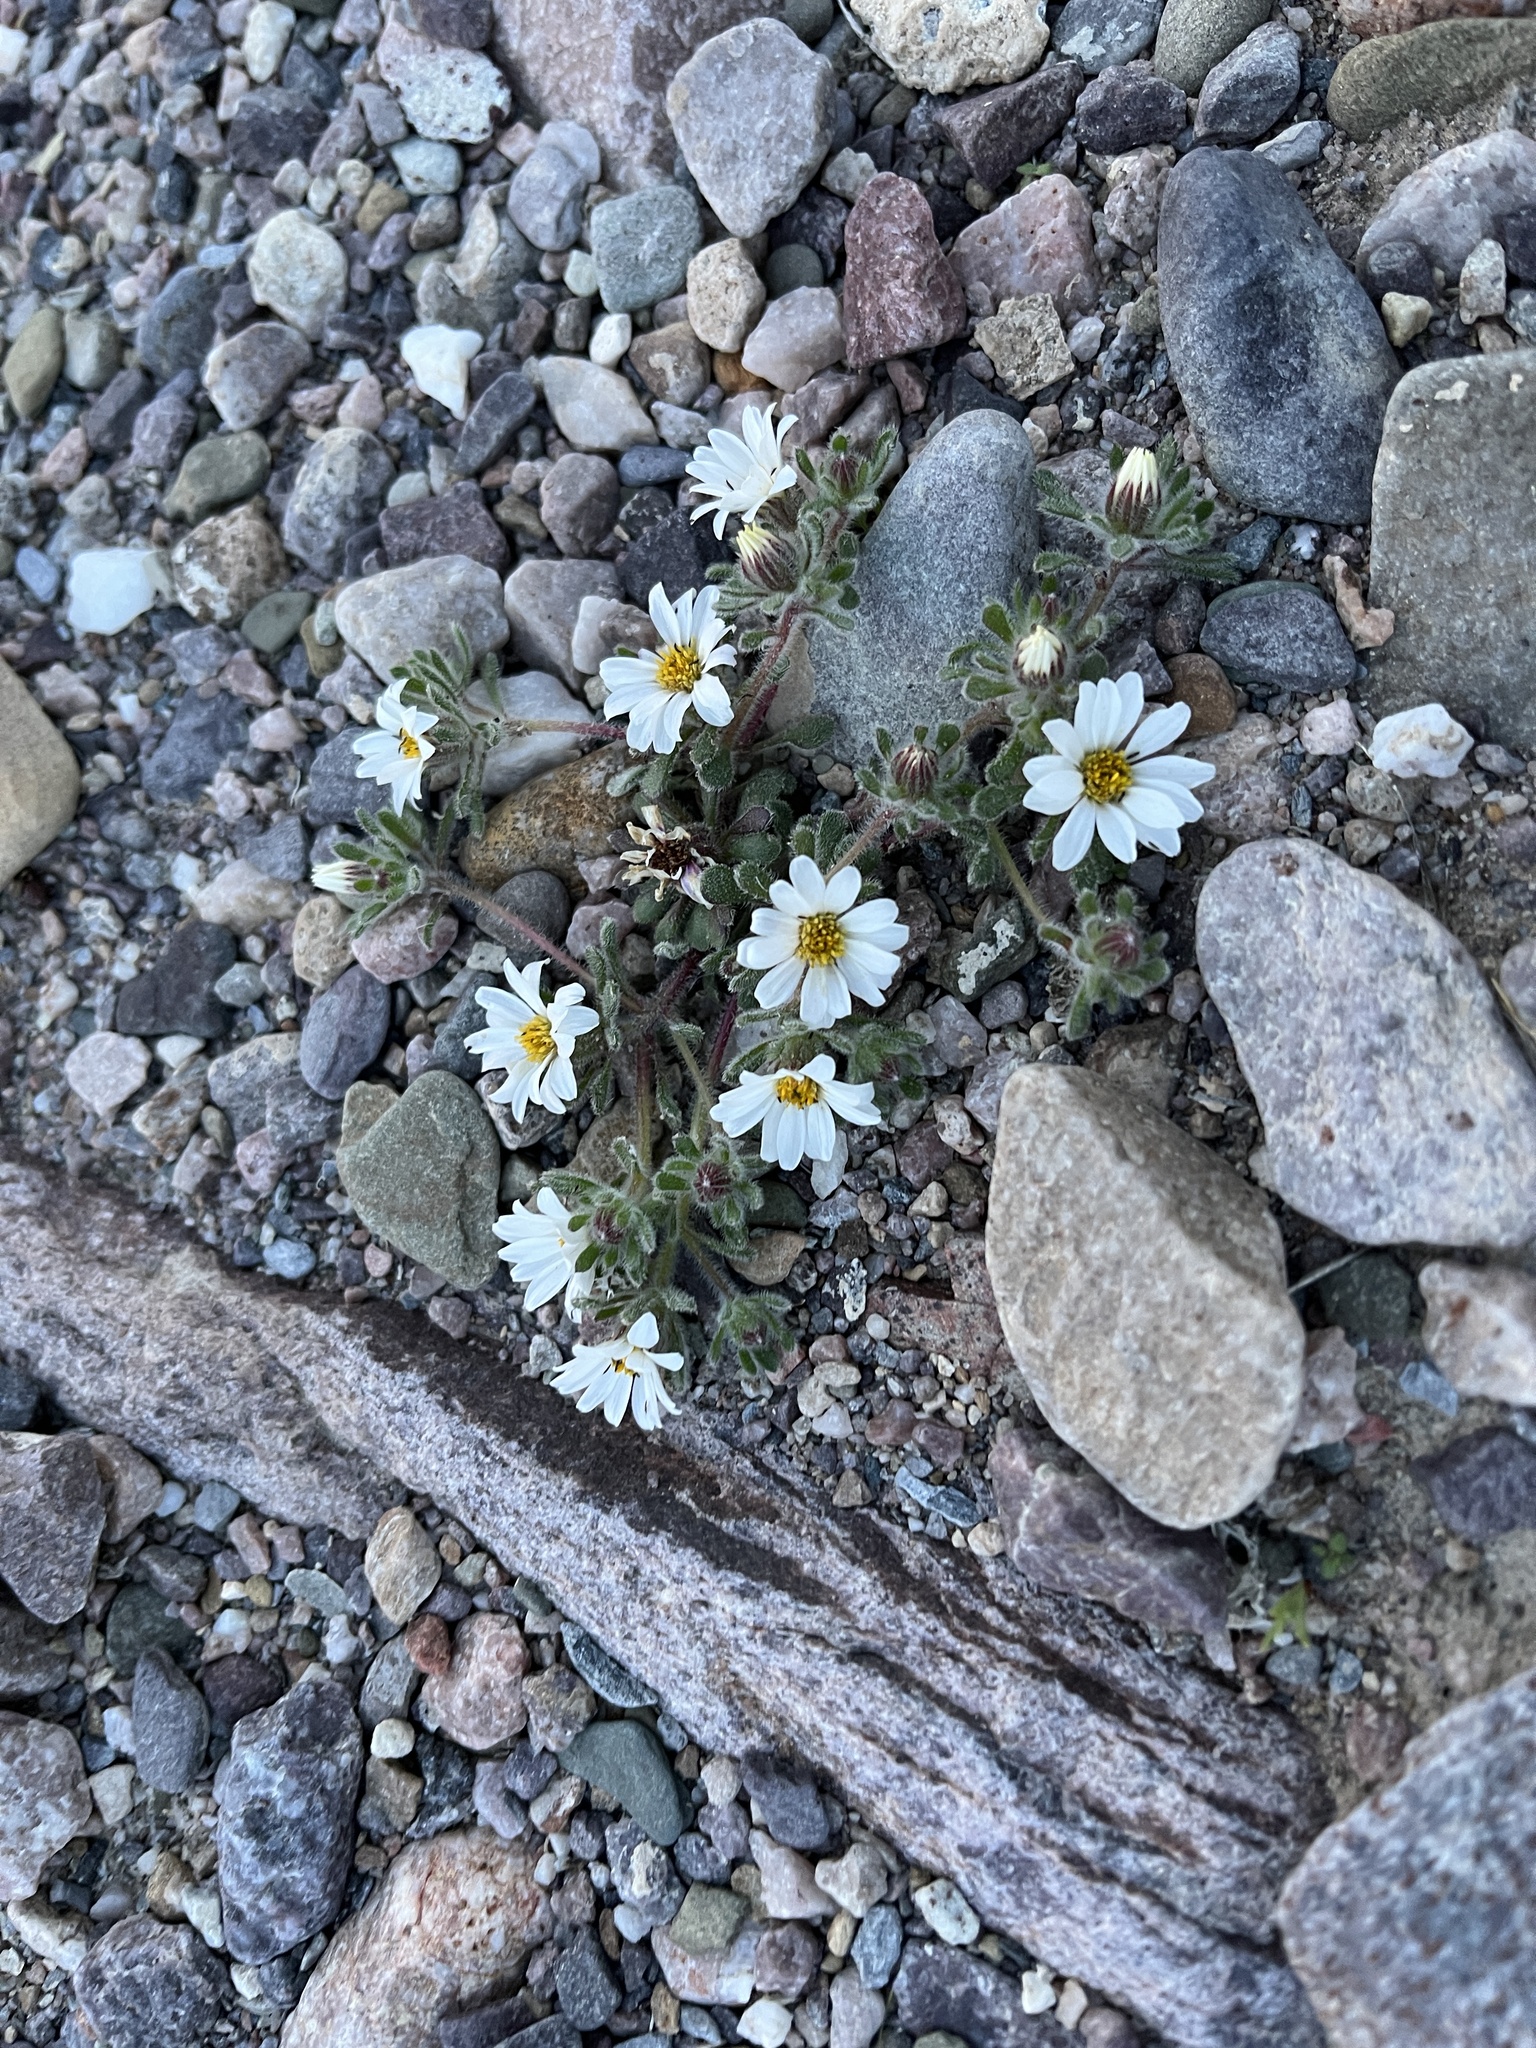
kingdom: Plantae
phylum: Tracheophyta
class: Magnoliopsida
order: Asterales
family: Asteraceae
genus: Monoptilon
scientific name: Monoptilon bellioides
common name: Bristly desertstar
